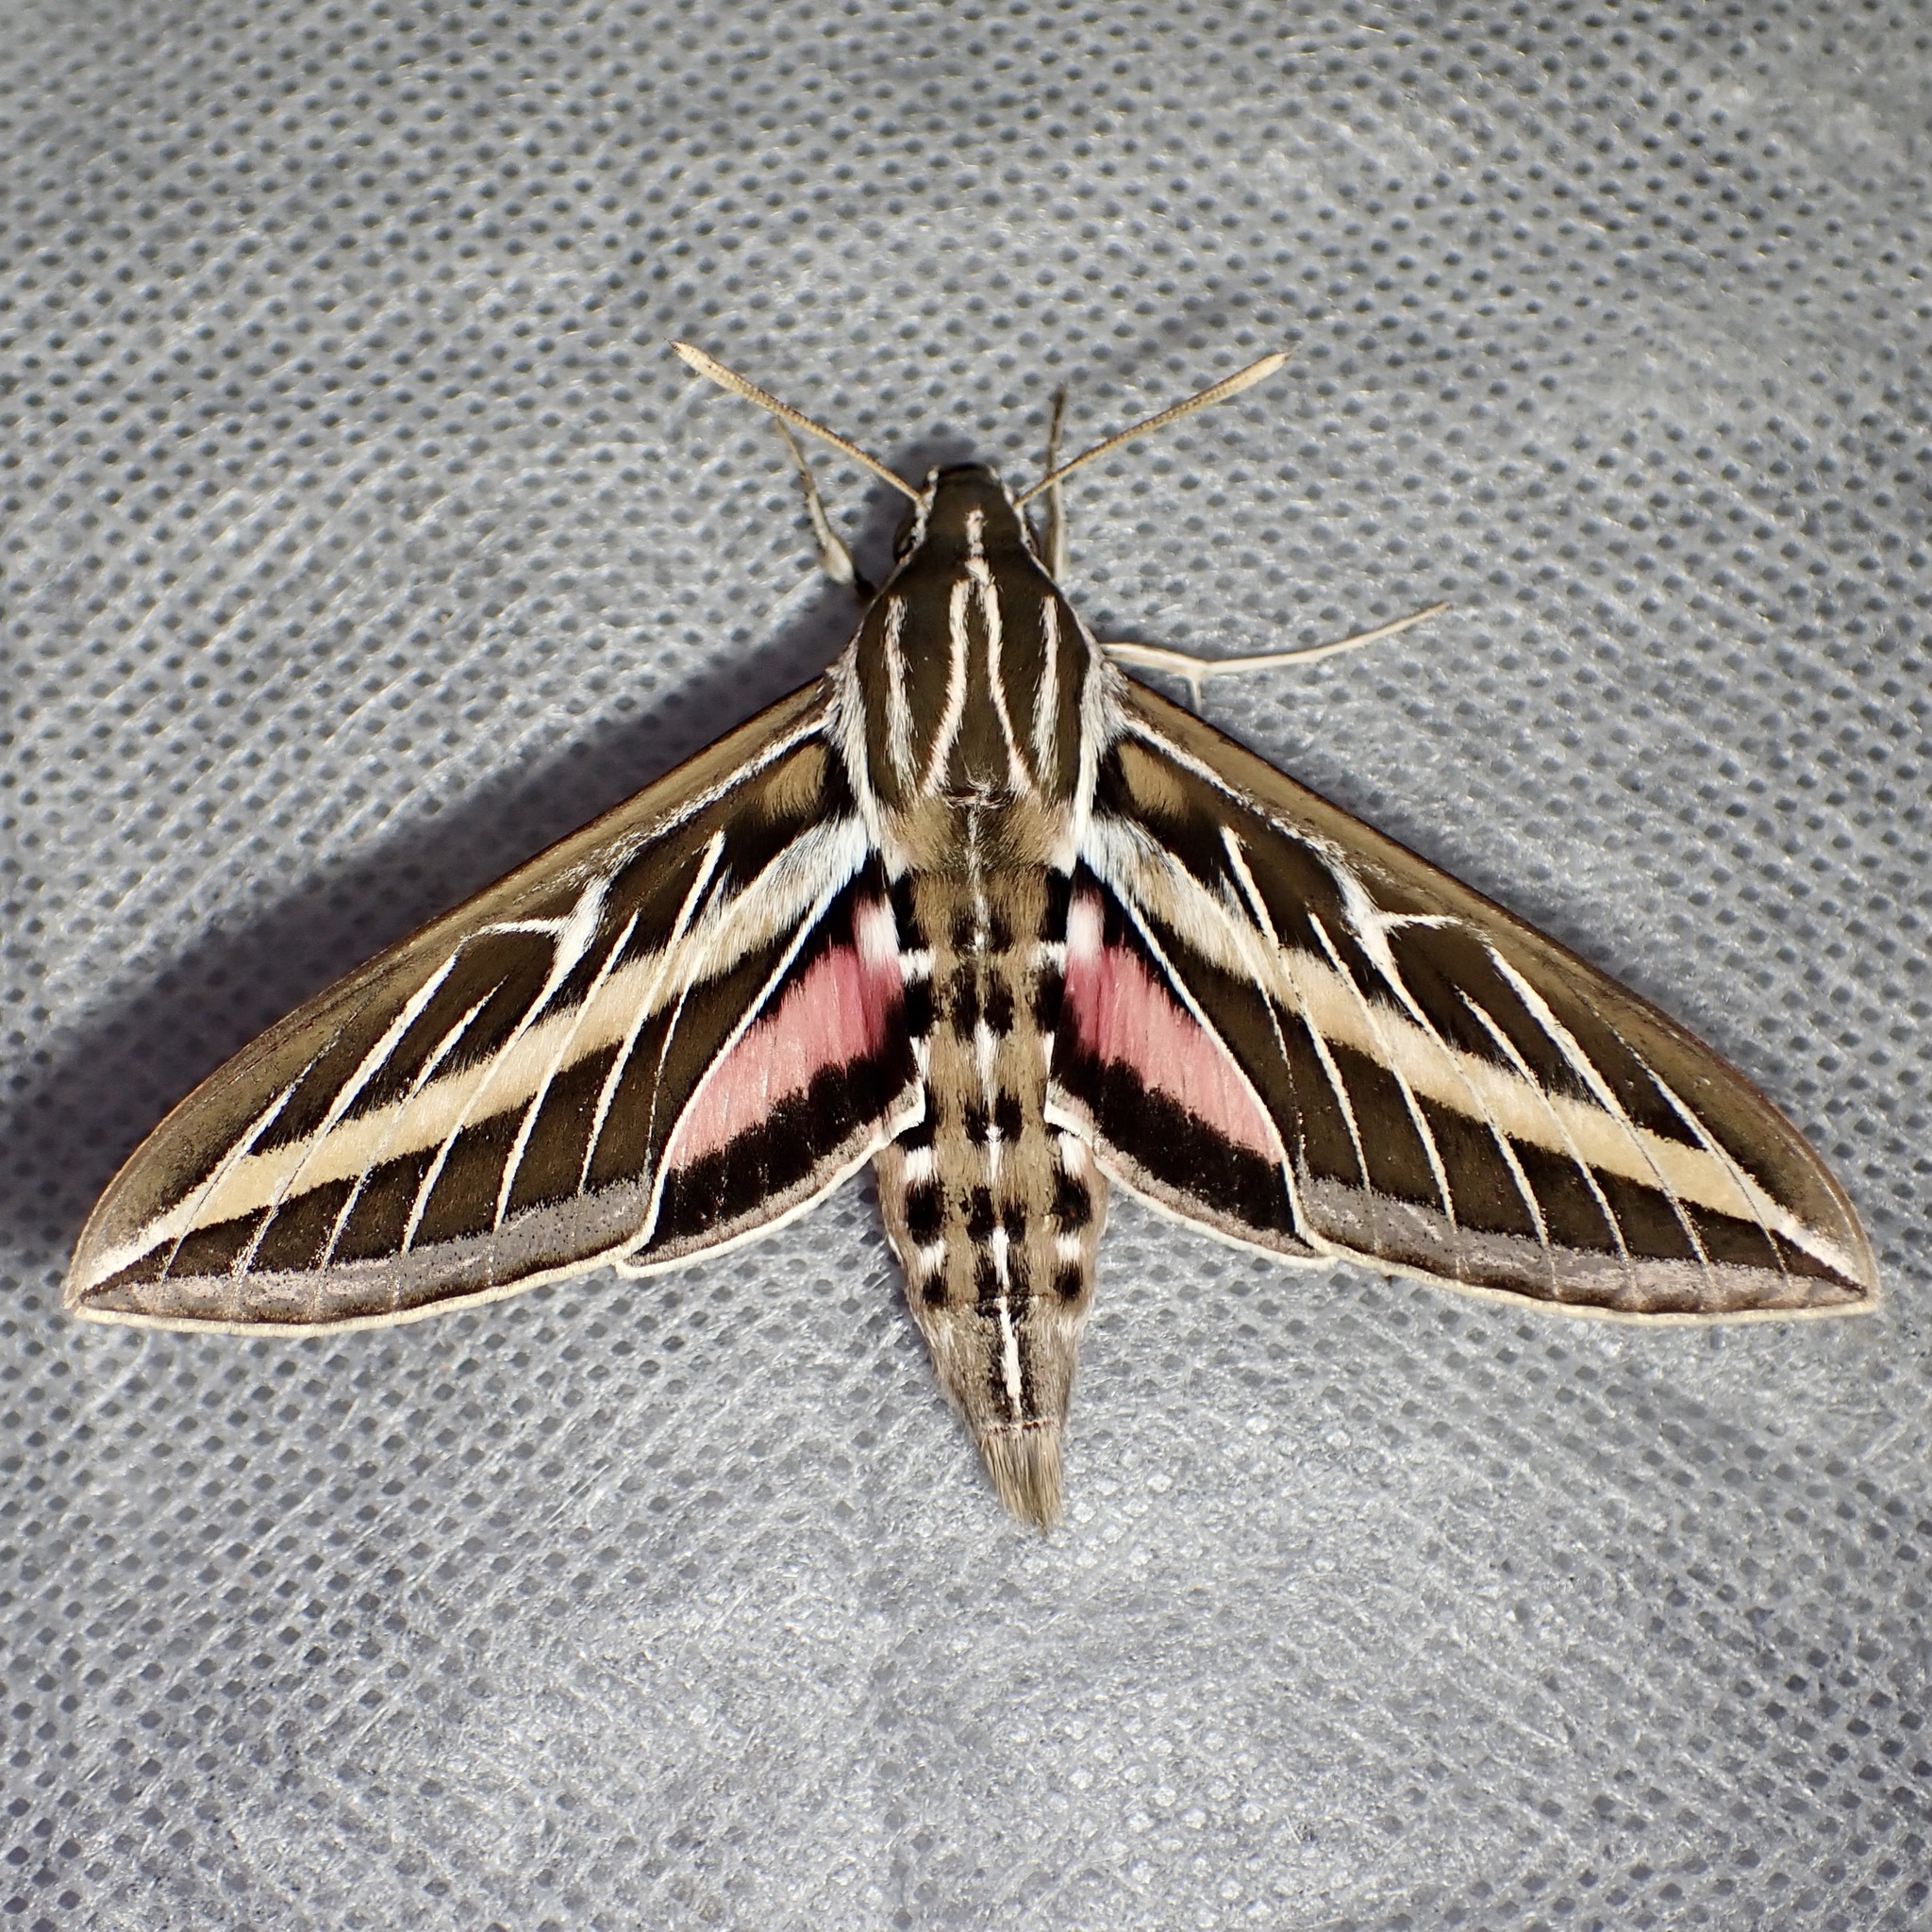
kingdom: Animalia
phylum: Arthropoda
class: Insecta
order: Lepidoptera
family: Sphingidae
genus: Hyles
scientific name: Hyles lineata
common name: White-lined sphinx
